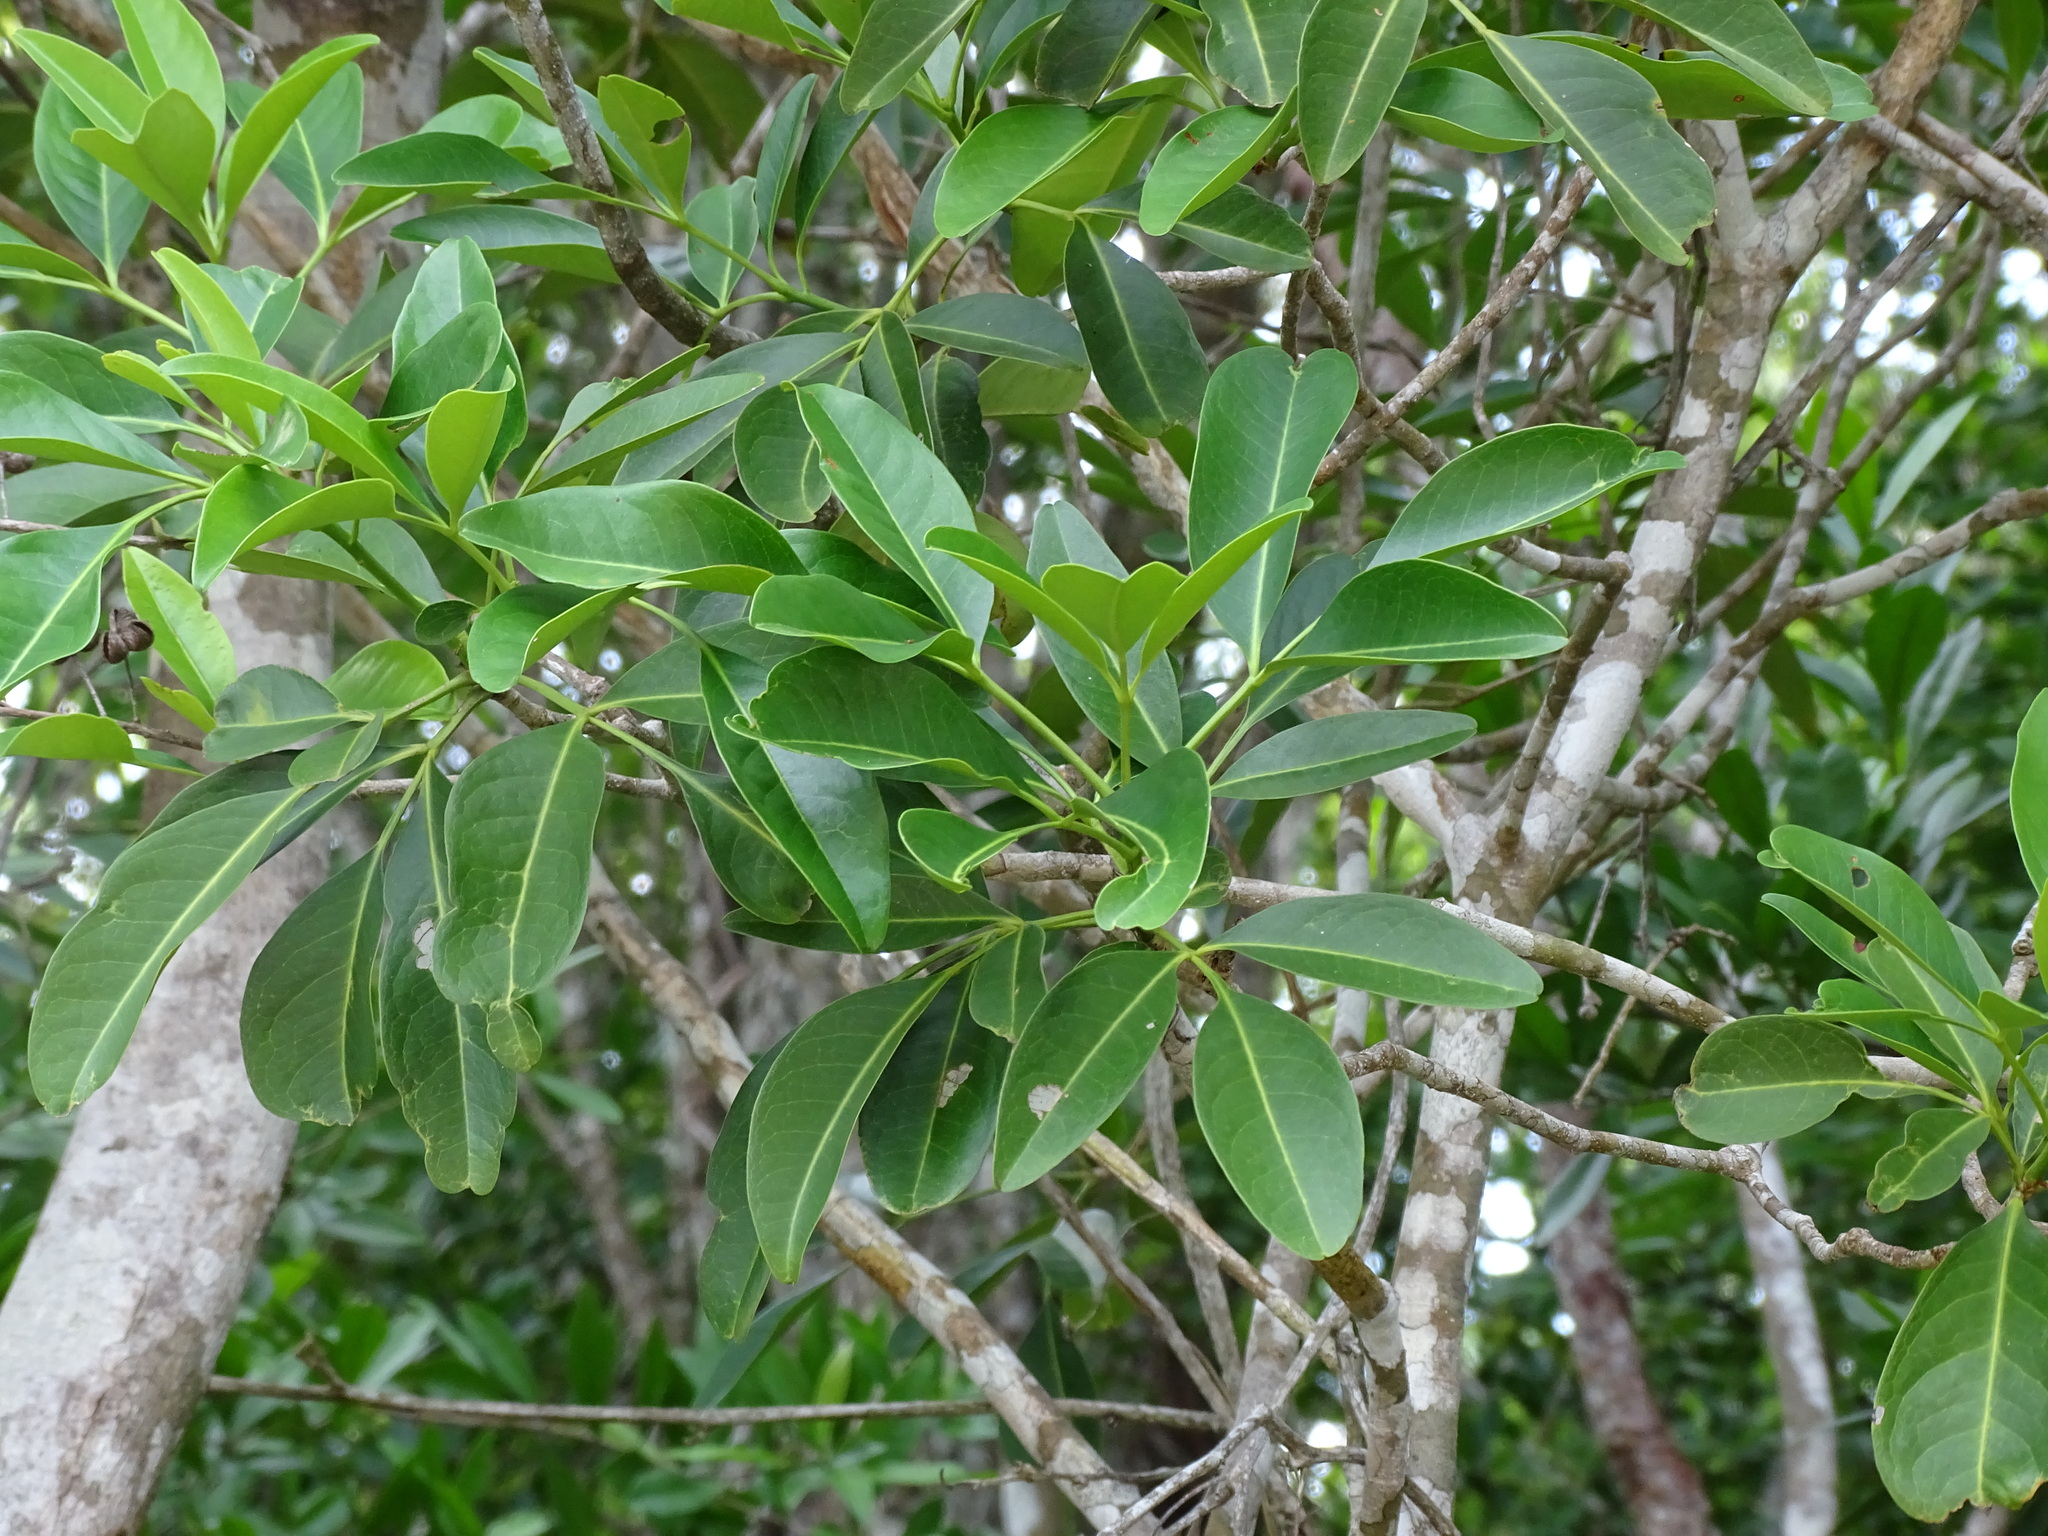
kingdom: Plantae
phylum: Tracheophyta
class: Magnoliopsida
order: Sapindales
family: Rutaceae
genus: Esenbeckia
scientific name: Esenbeckia pentaphylla
